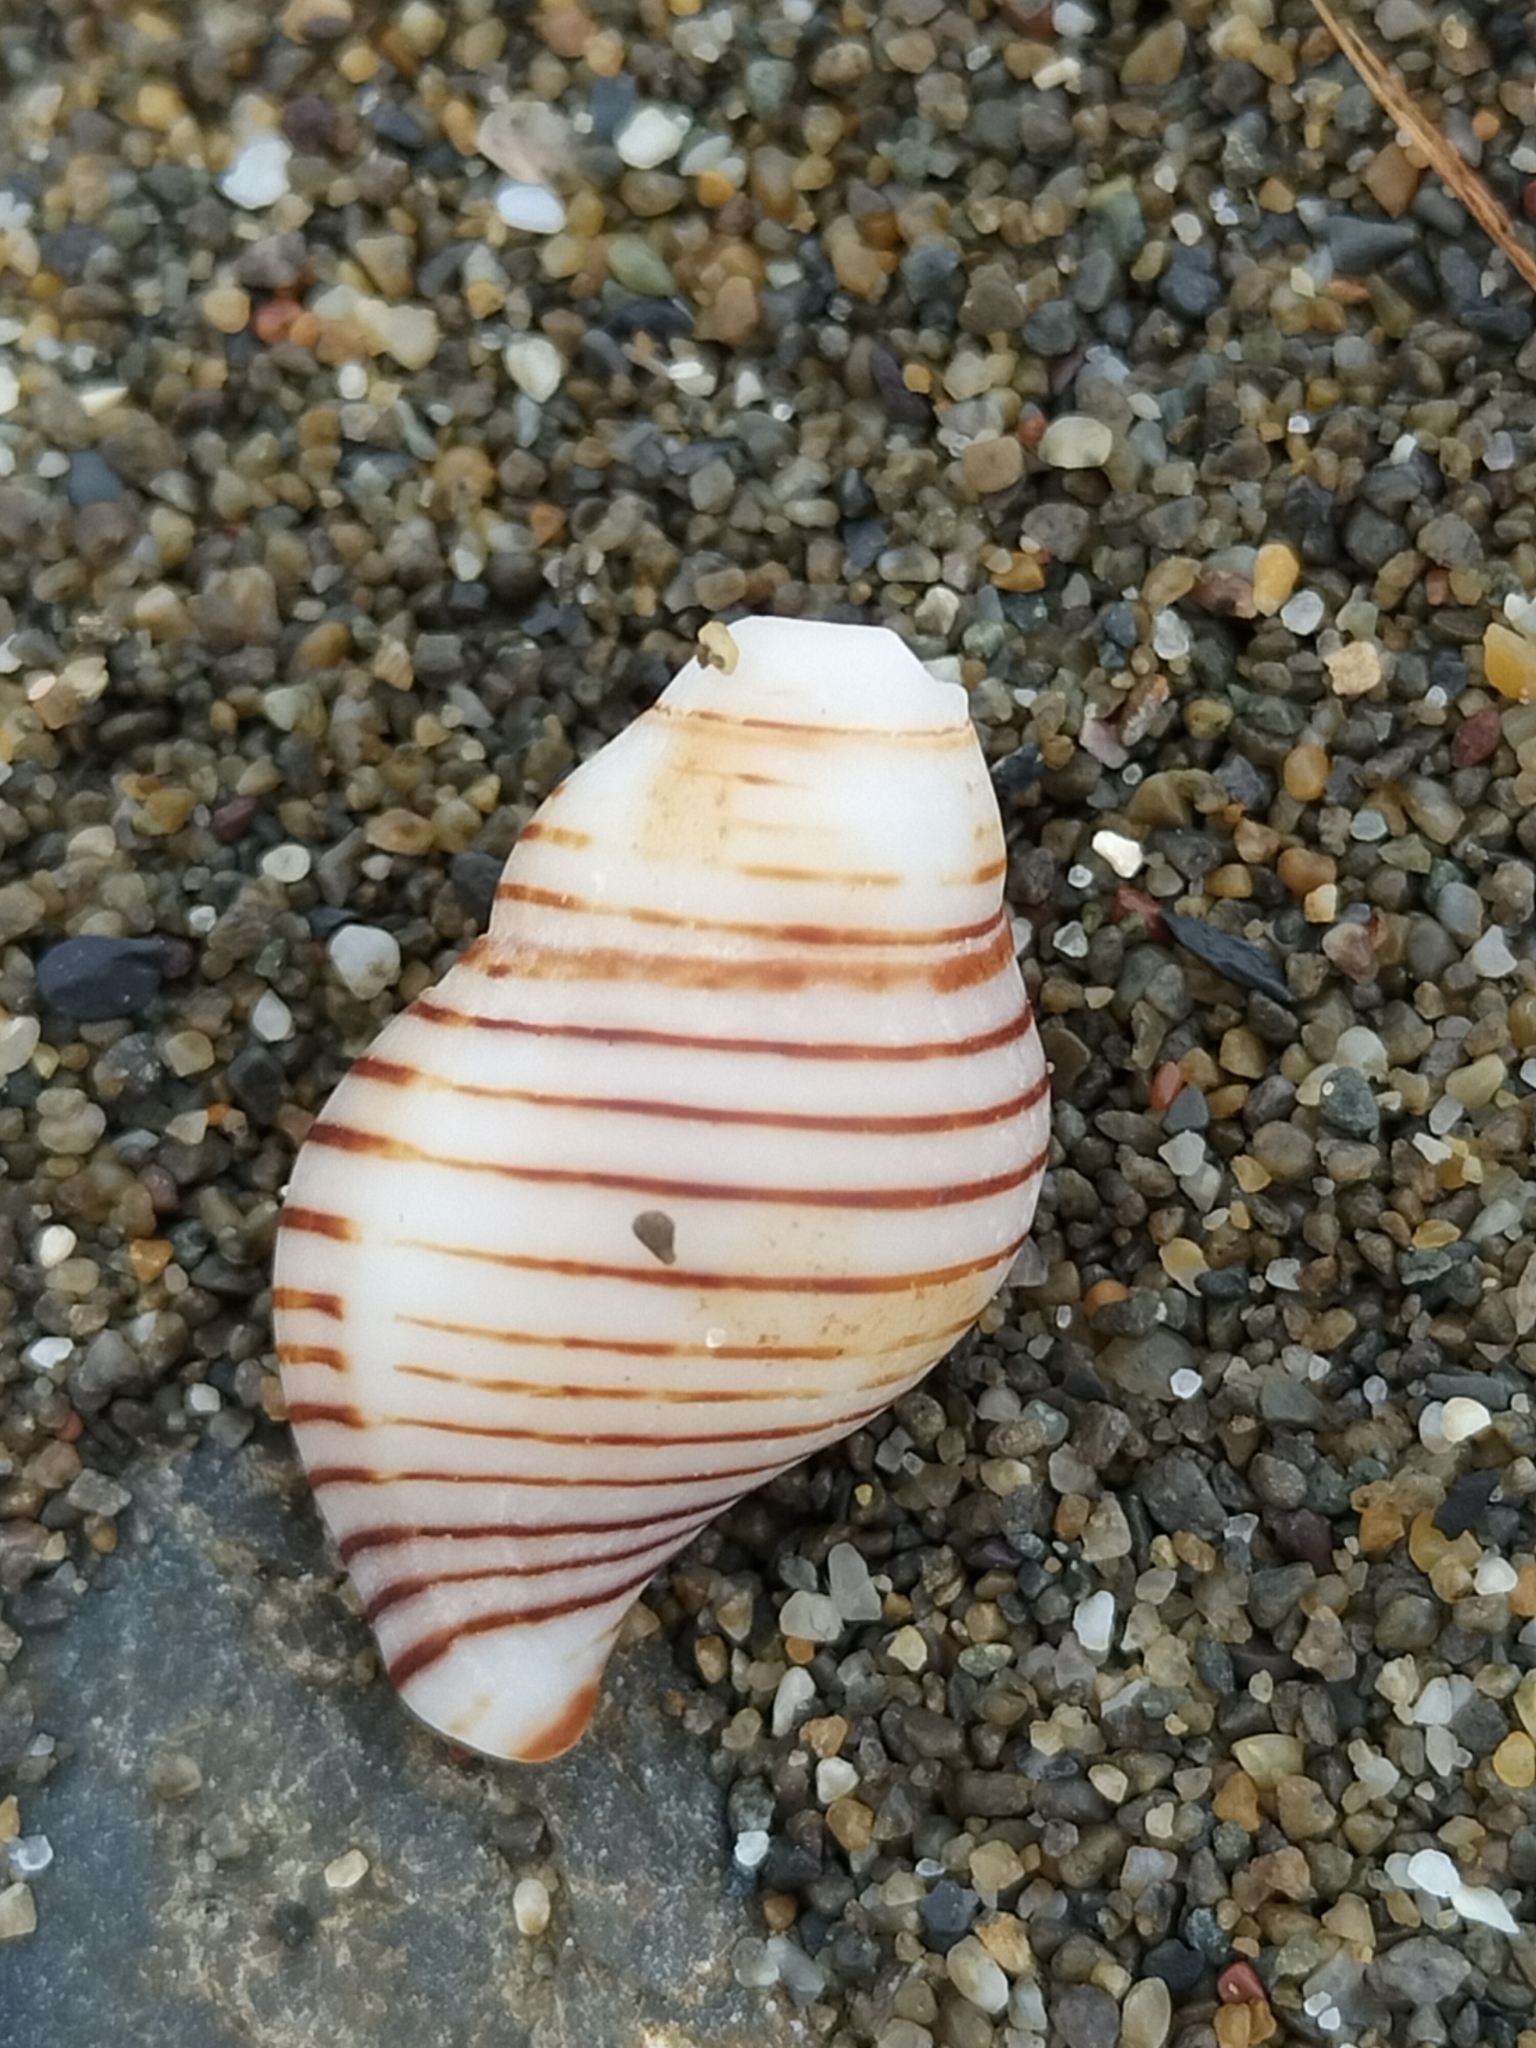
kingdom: Animalia
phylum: Mollusca
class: Gastropoda
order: Neogastropoda
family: Tudiclidae
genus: Buccinulum
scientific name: Buccinulum linea
